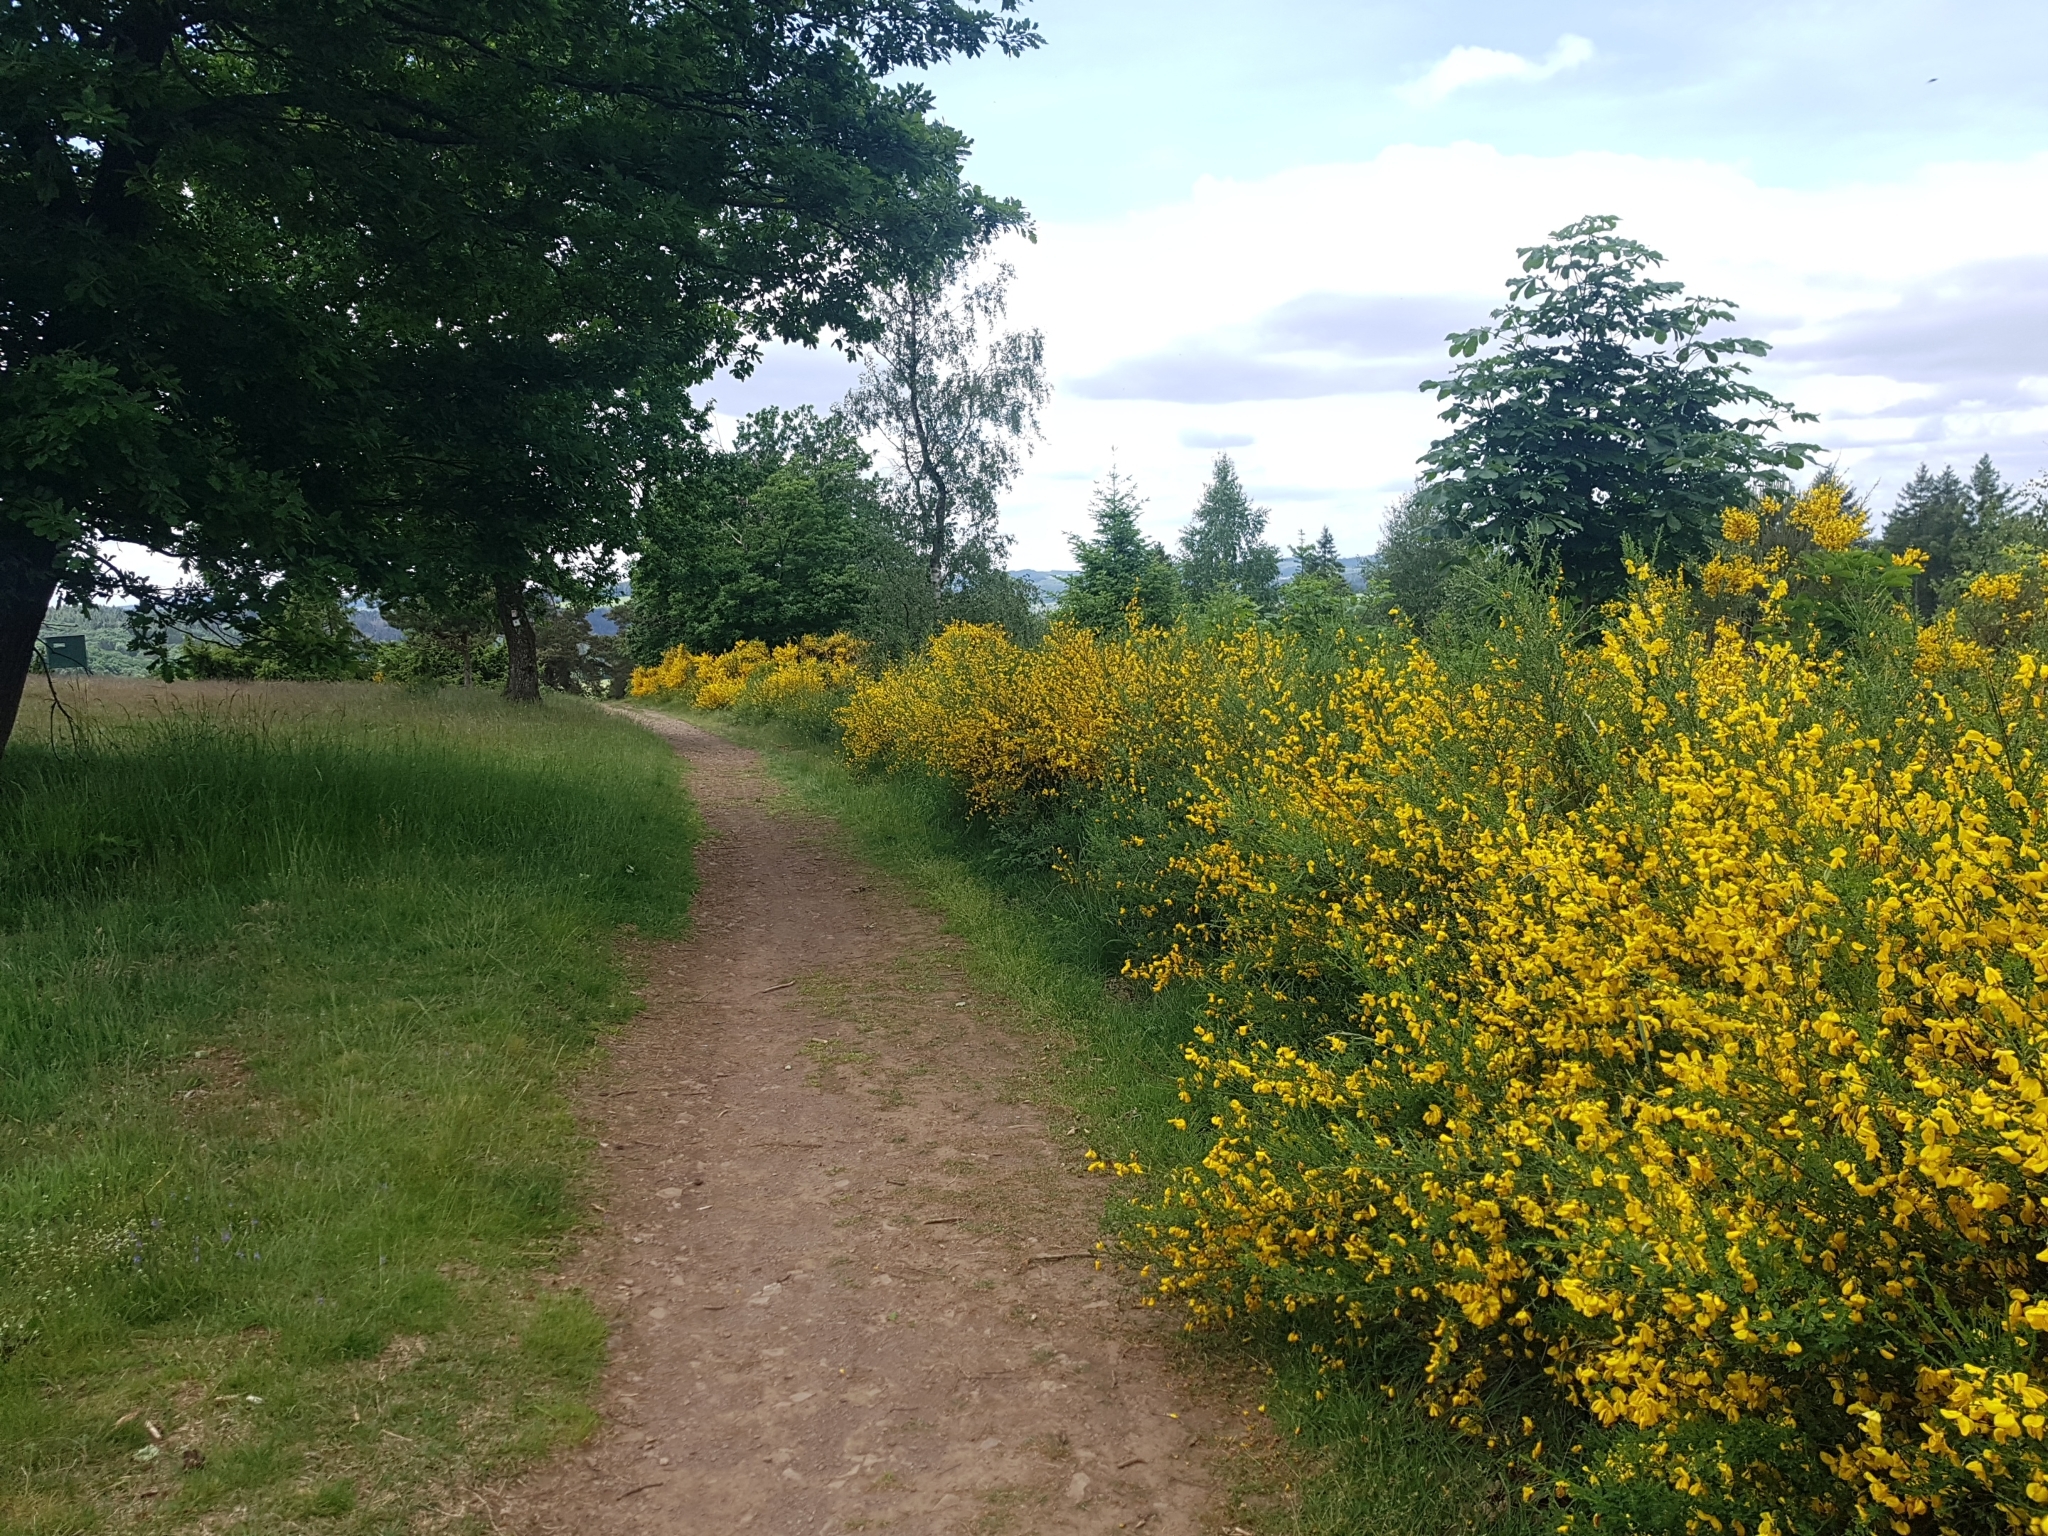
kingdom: Plantae
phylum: Tracheophyta
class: Magnoliopsida
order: Fabales
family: Fabaceae
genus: Cytisus
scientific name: Cytisus scoparius
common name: Scotch broom
